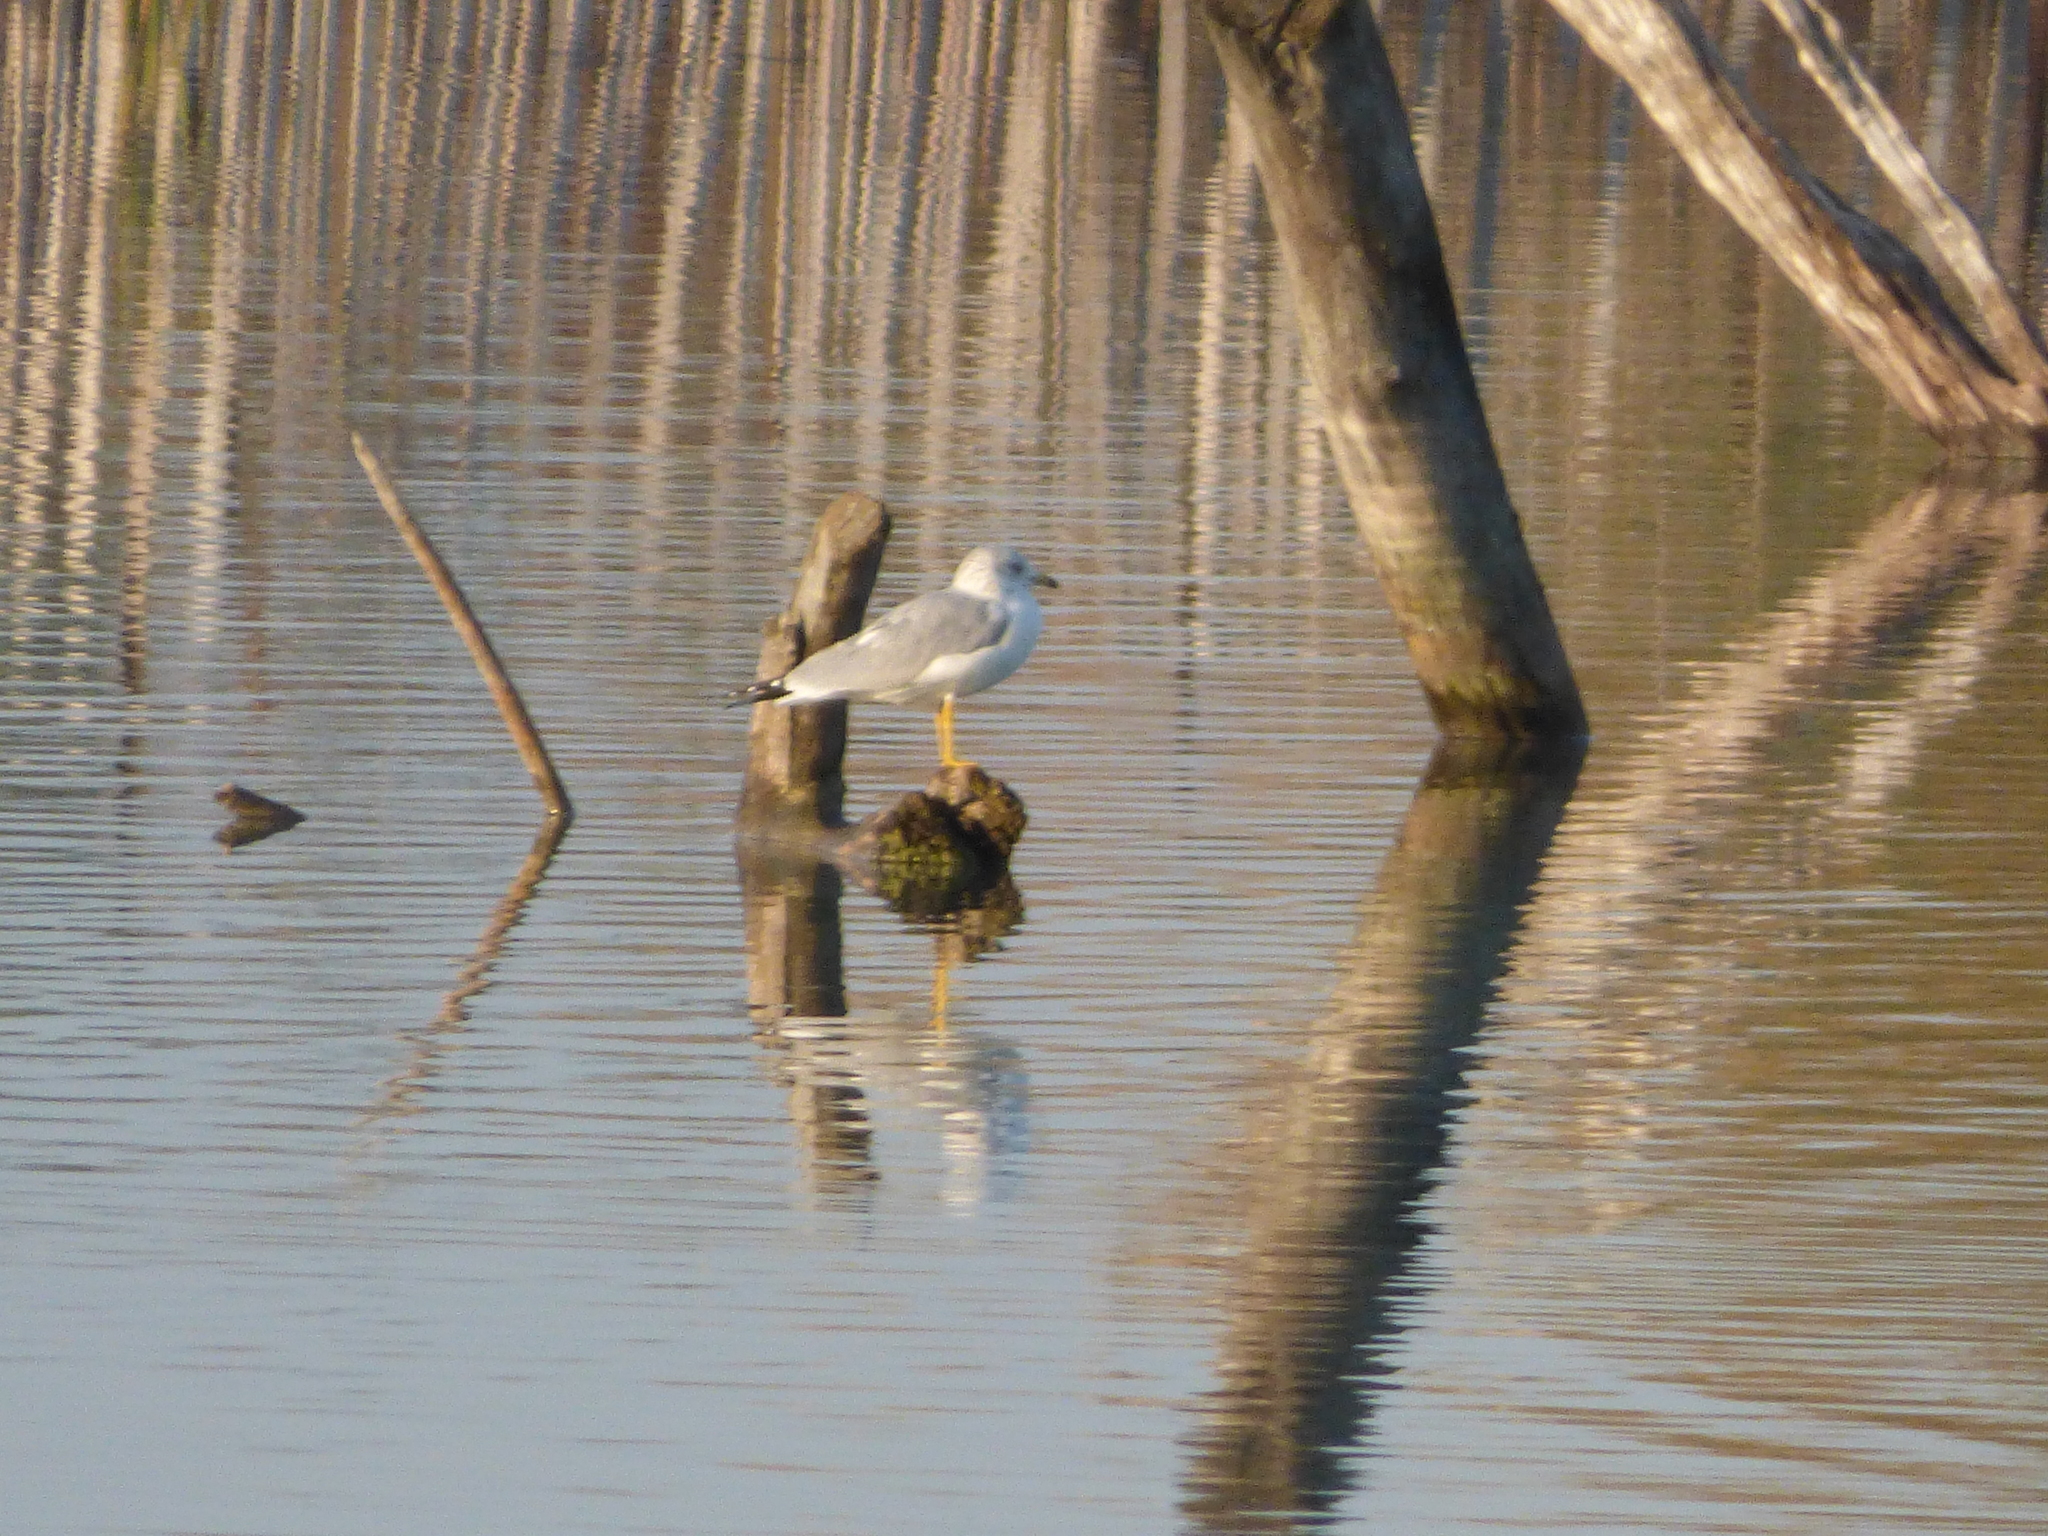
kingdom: Animalia
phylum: Chordata
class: Aves
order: Charadriiformes
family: Laridae
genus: Larus
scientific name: Larus delawarensis
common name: Ring-billed gull
